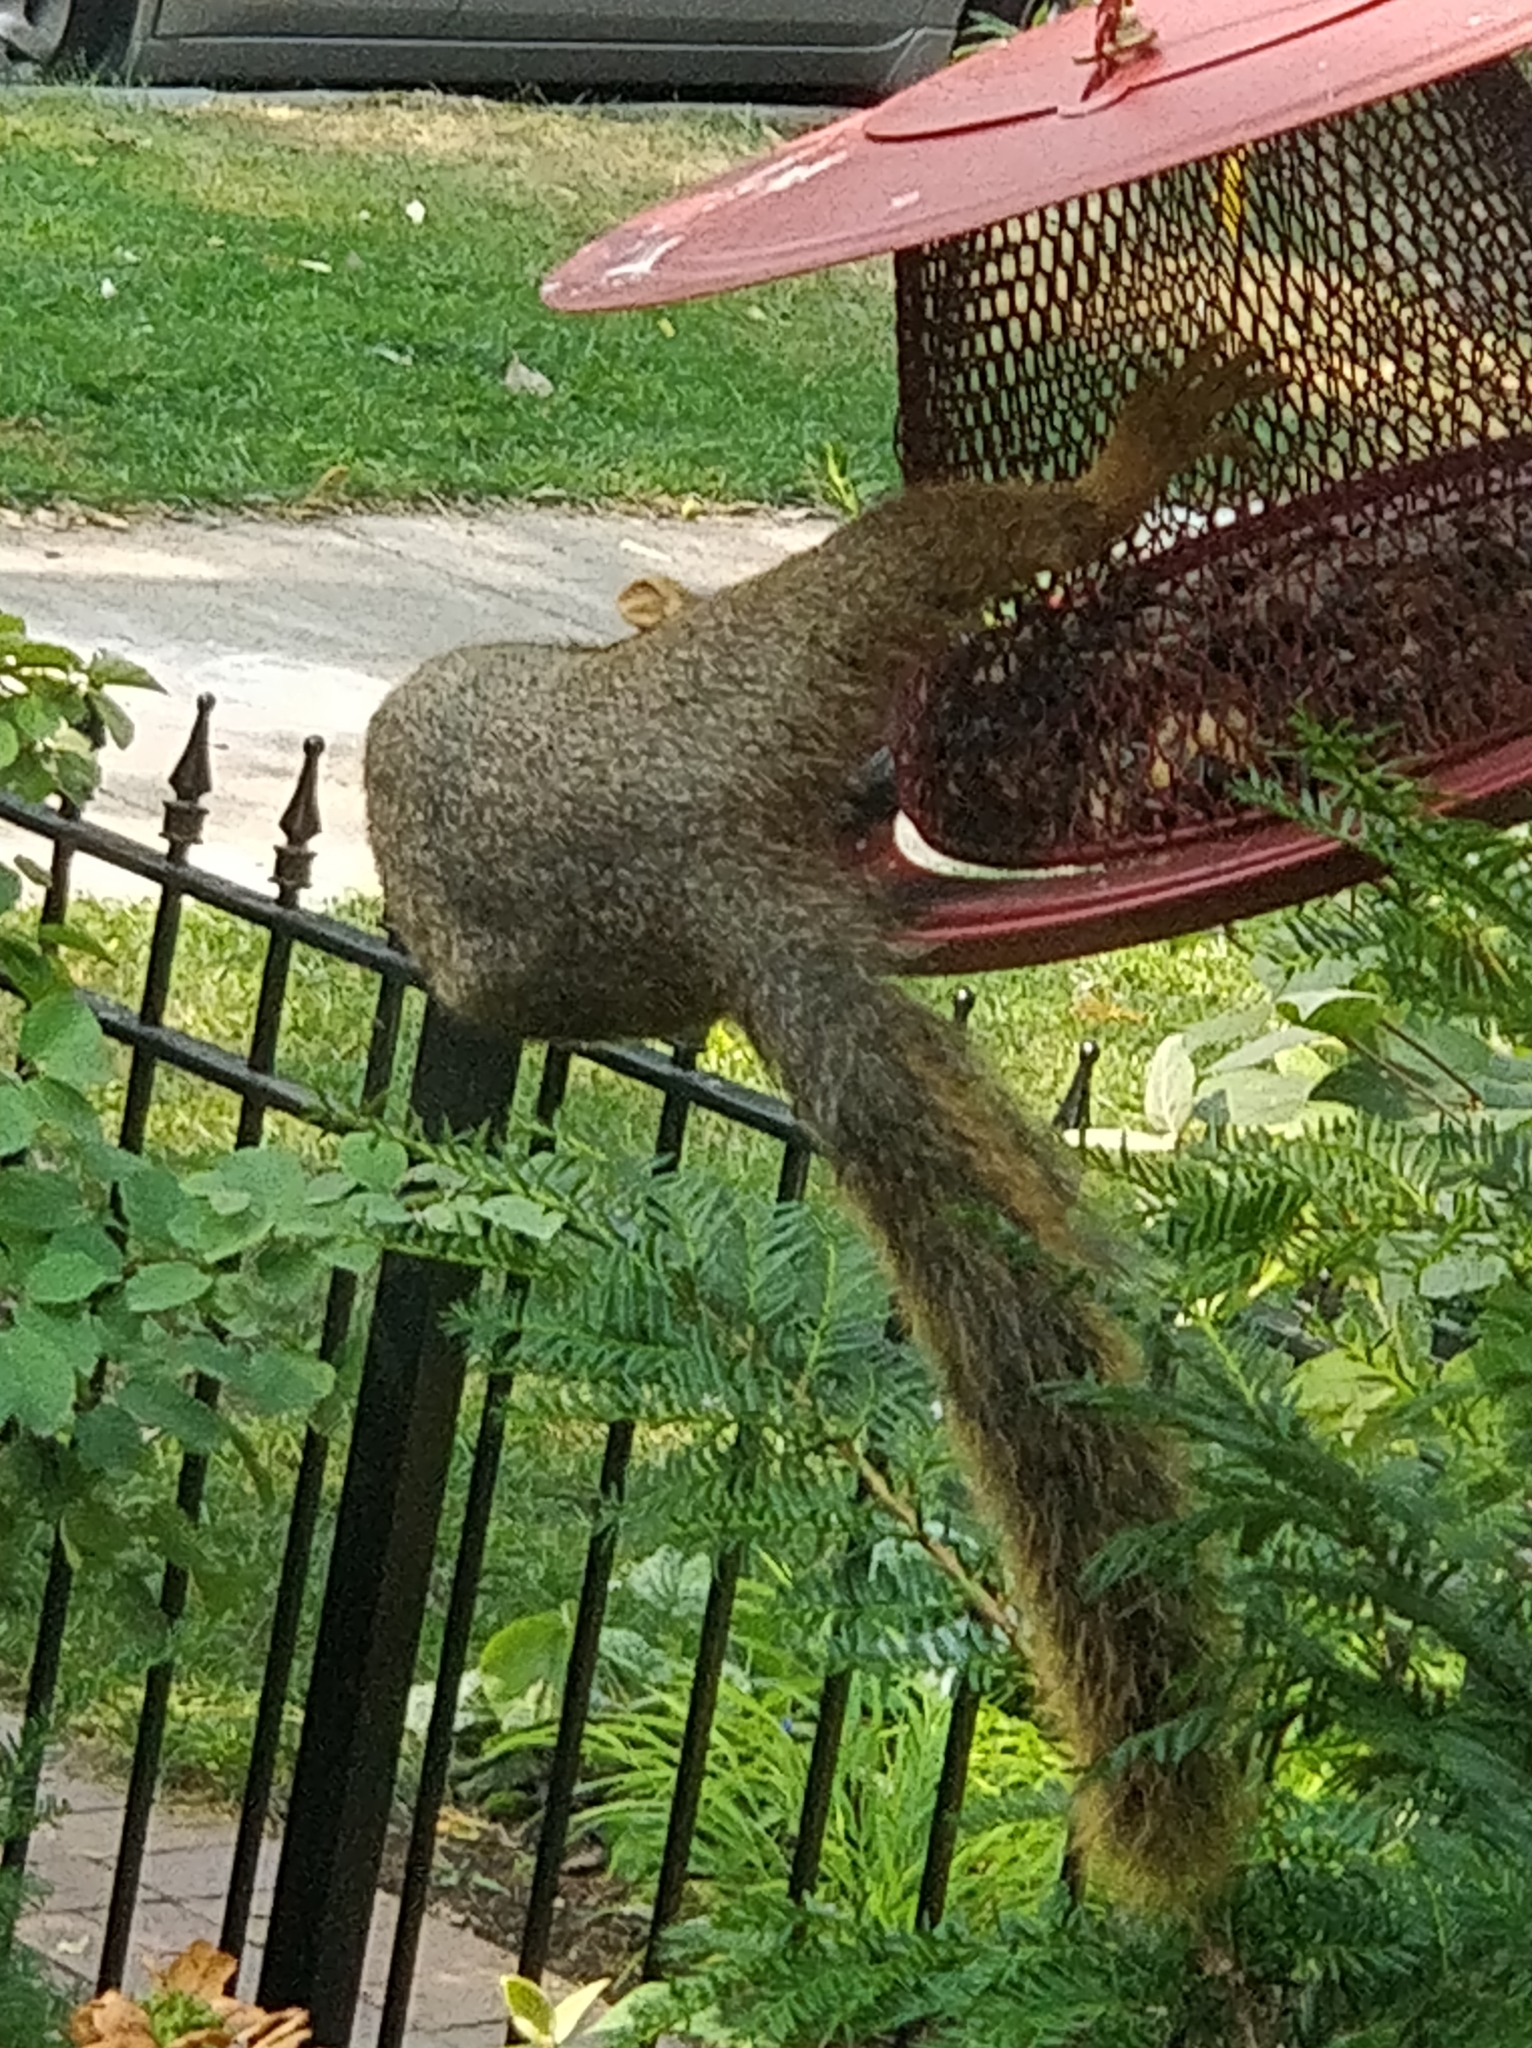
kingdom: Animalia
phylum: Chordata
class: Mammalia
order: Rodentia
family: Sciuridae
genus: Sciurus
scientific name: Sciurus niger
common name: Fox squirrel
